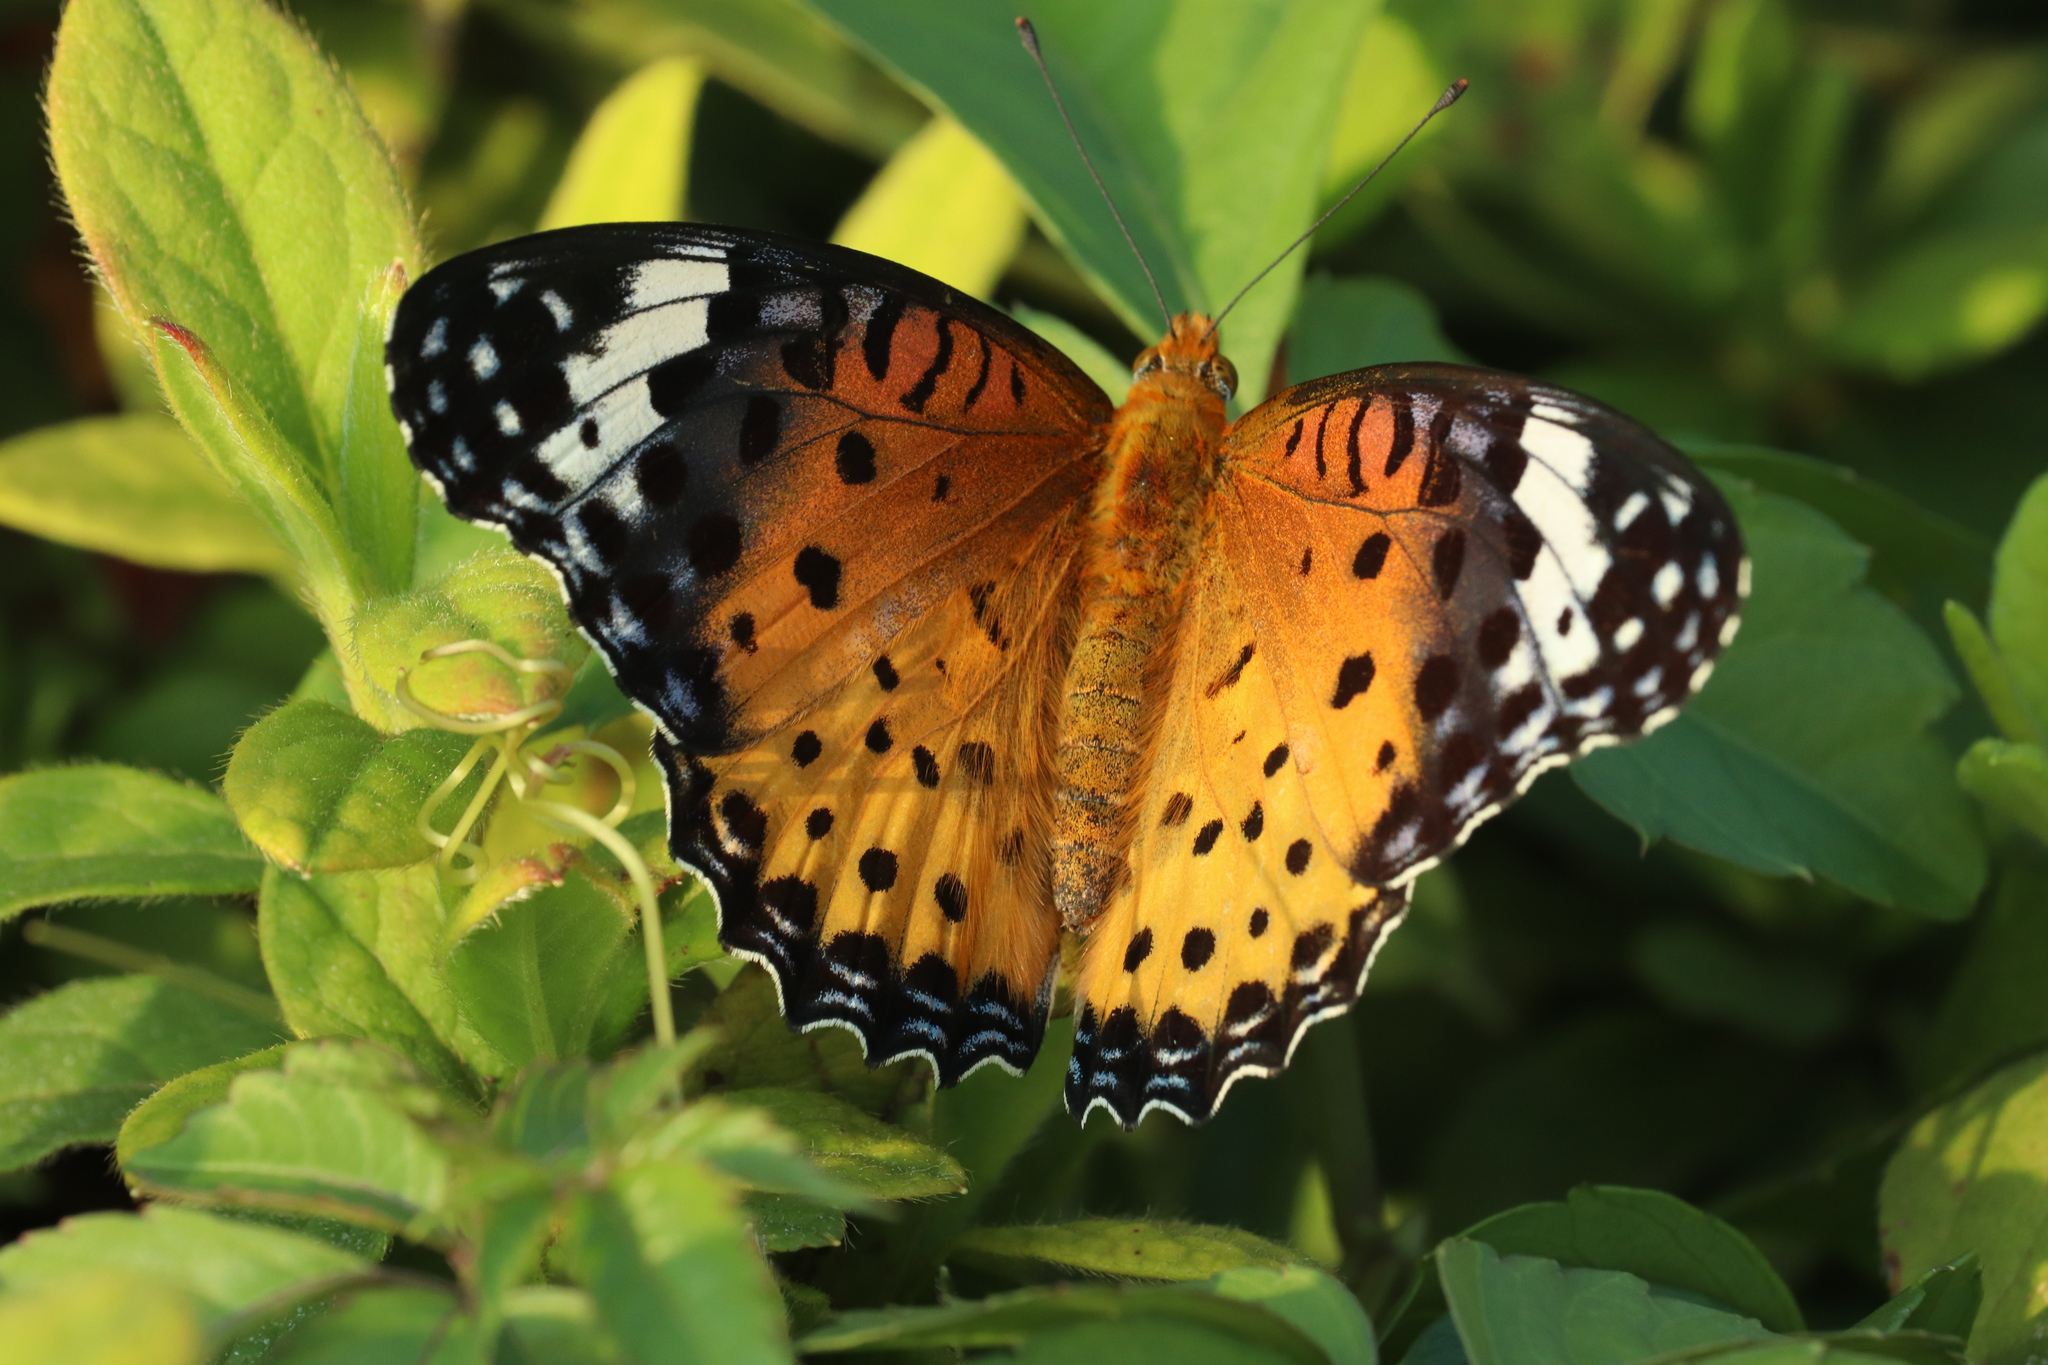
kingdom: Animalia
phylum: Arthropoda
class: Insecta
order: Lepidoptera
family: Nymphalidae
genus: Argynnis
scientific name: Argynnis hyperbius
